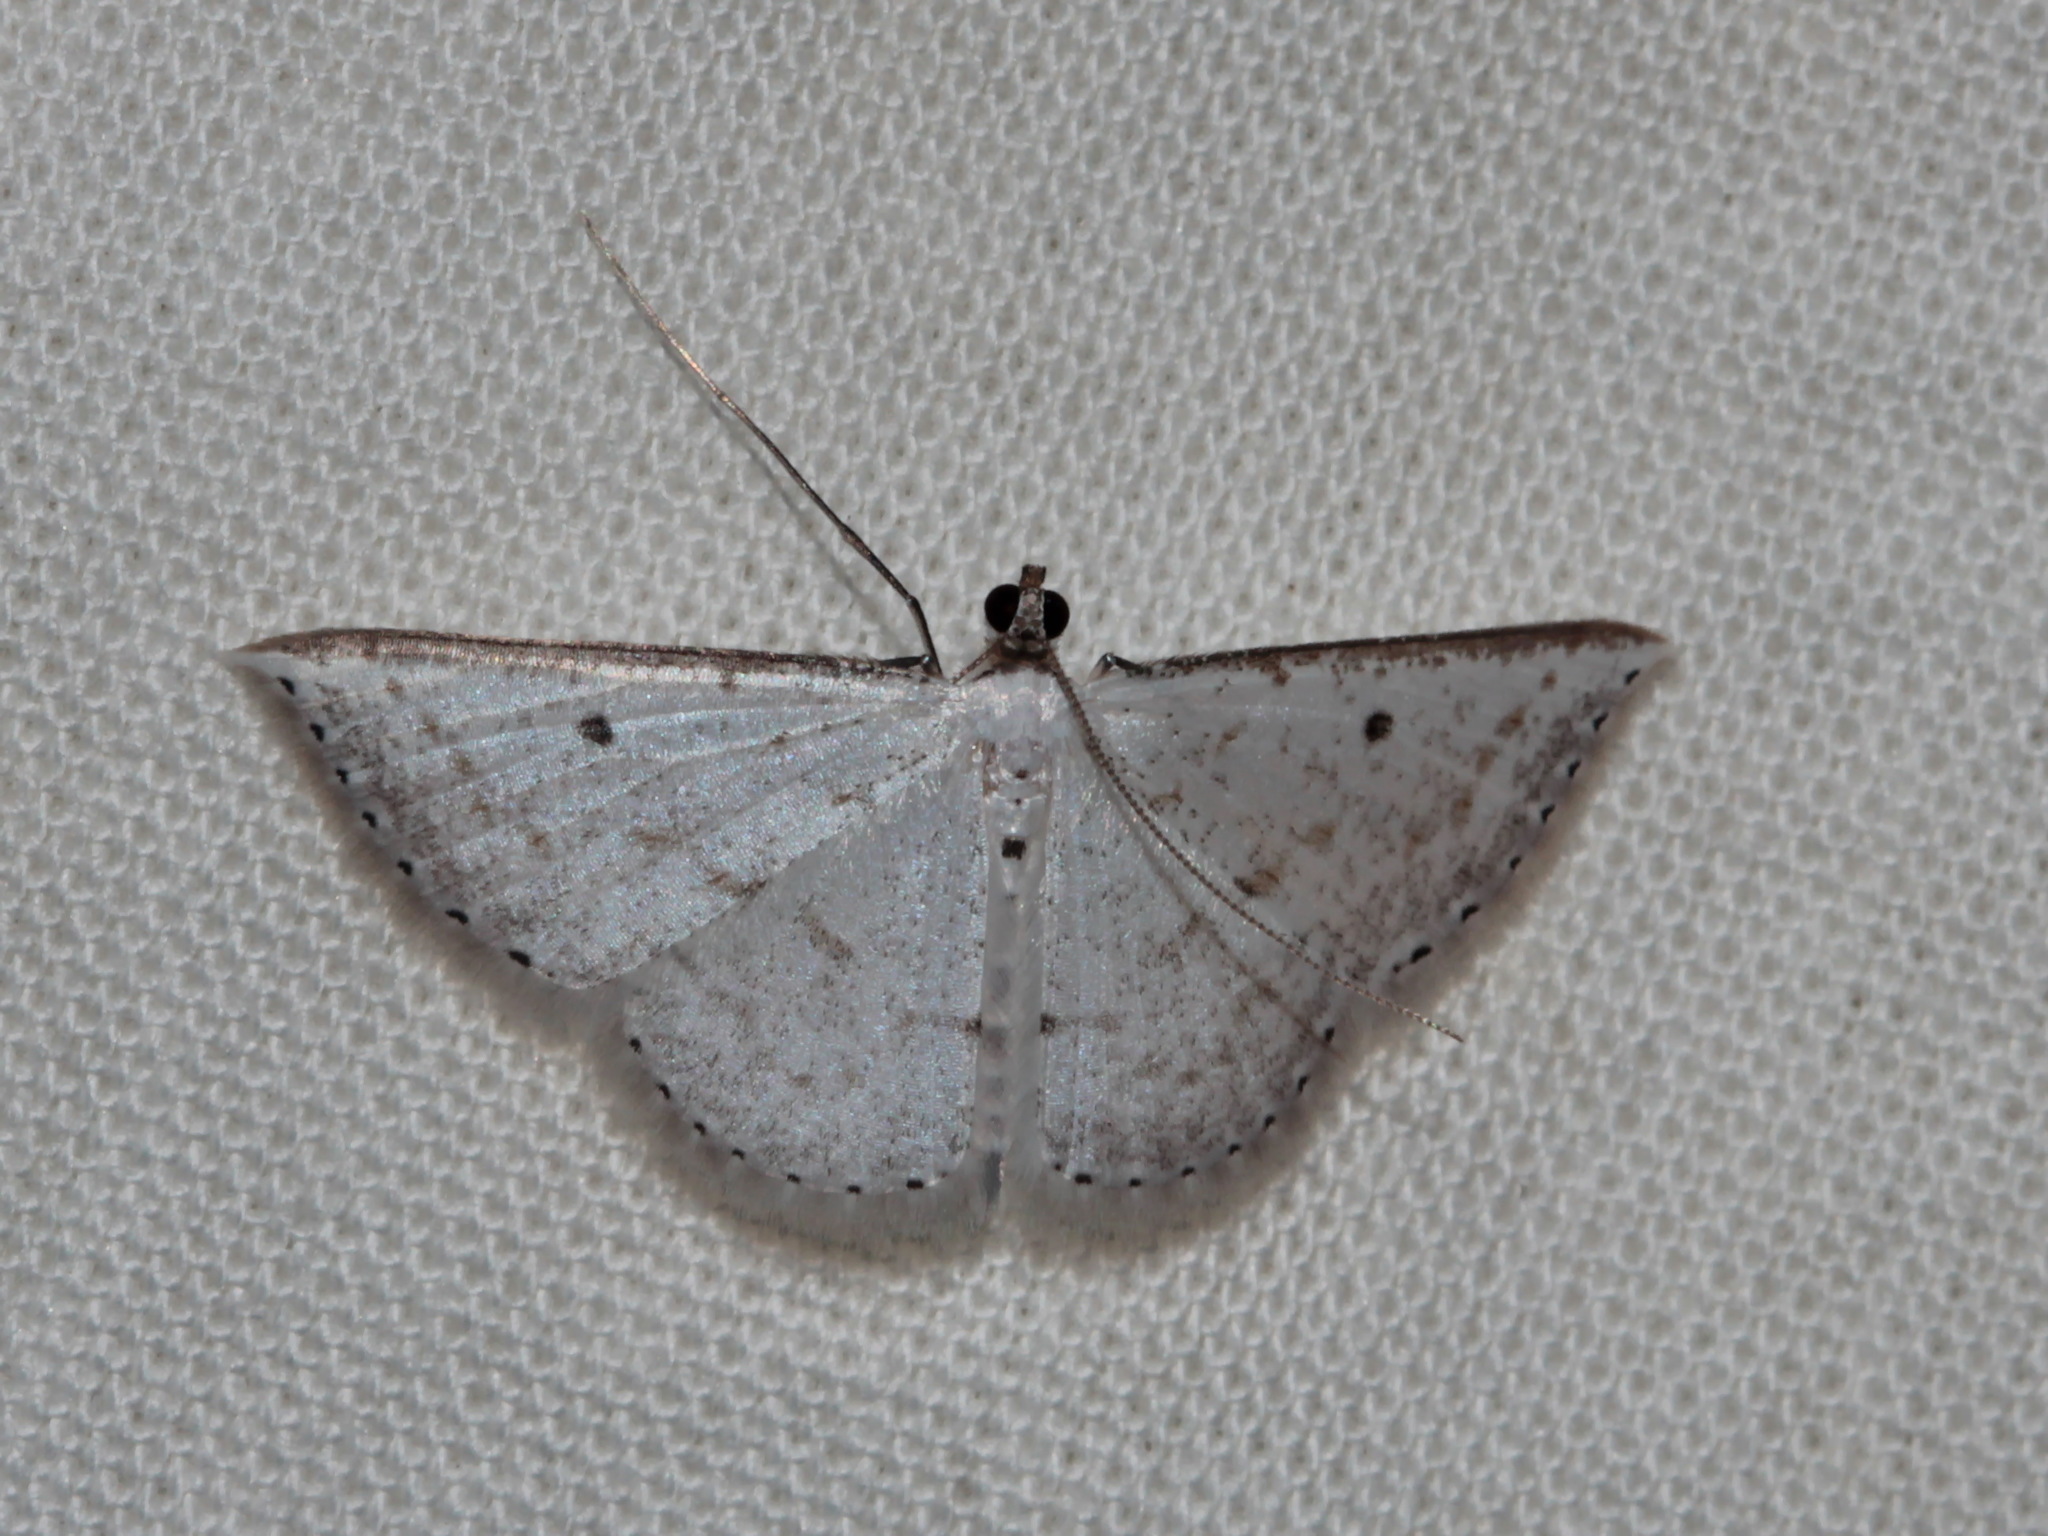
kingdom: Animalia
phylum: Arthropoda
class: Insecta
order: Lepidoptera
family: Geometridae
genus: Derambila
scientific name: Derambila costata
